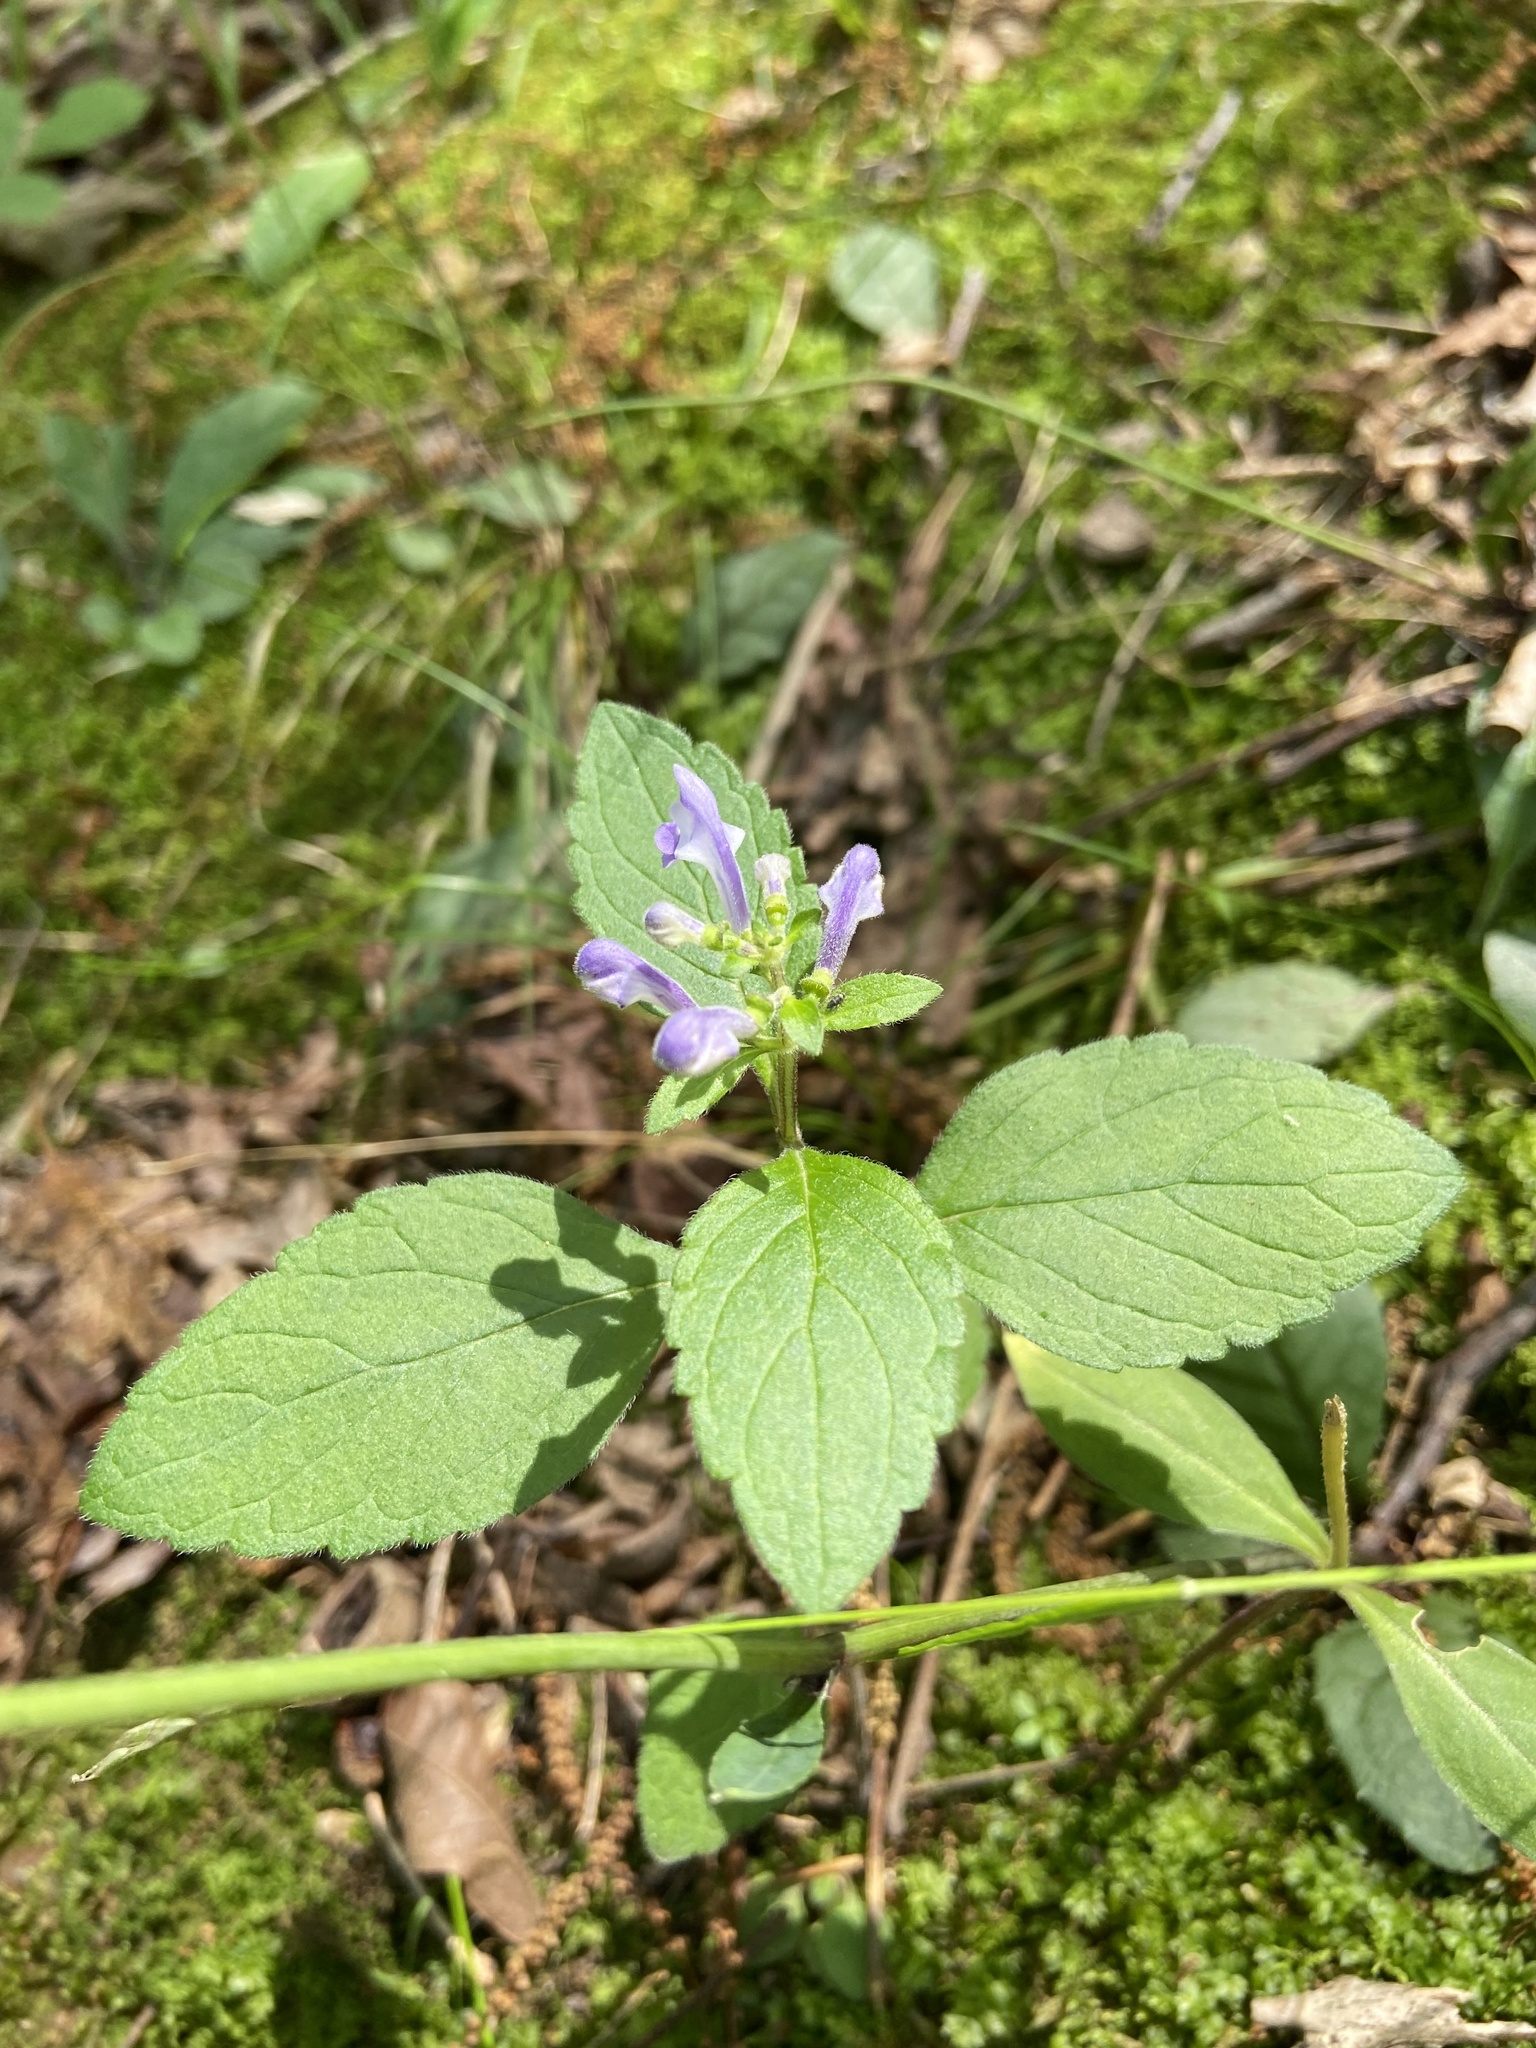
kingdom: Plantae
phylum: Tracheophyta
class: Magnoliopsida
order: Lamiales
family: Lamiaceae
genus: Scutellaria
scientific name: Scutellaria elliptica
